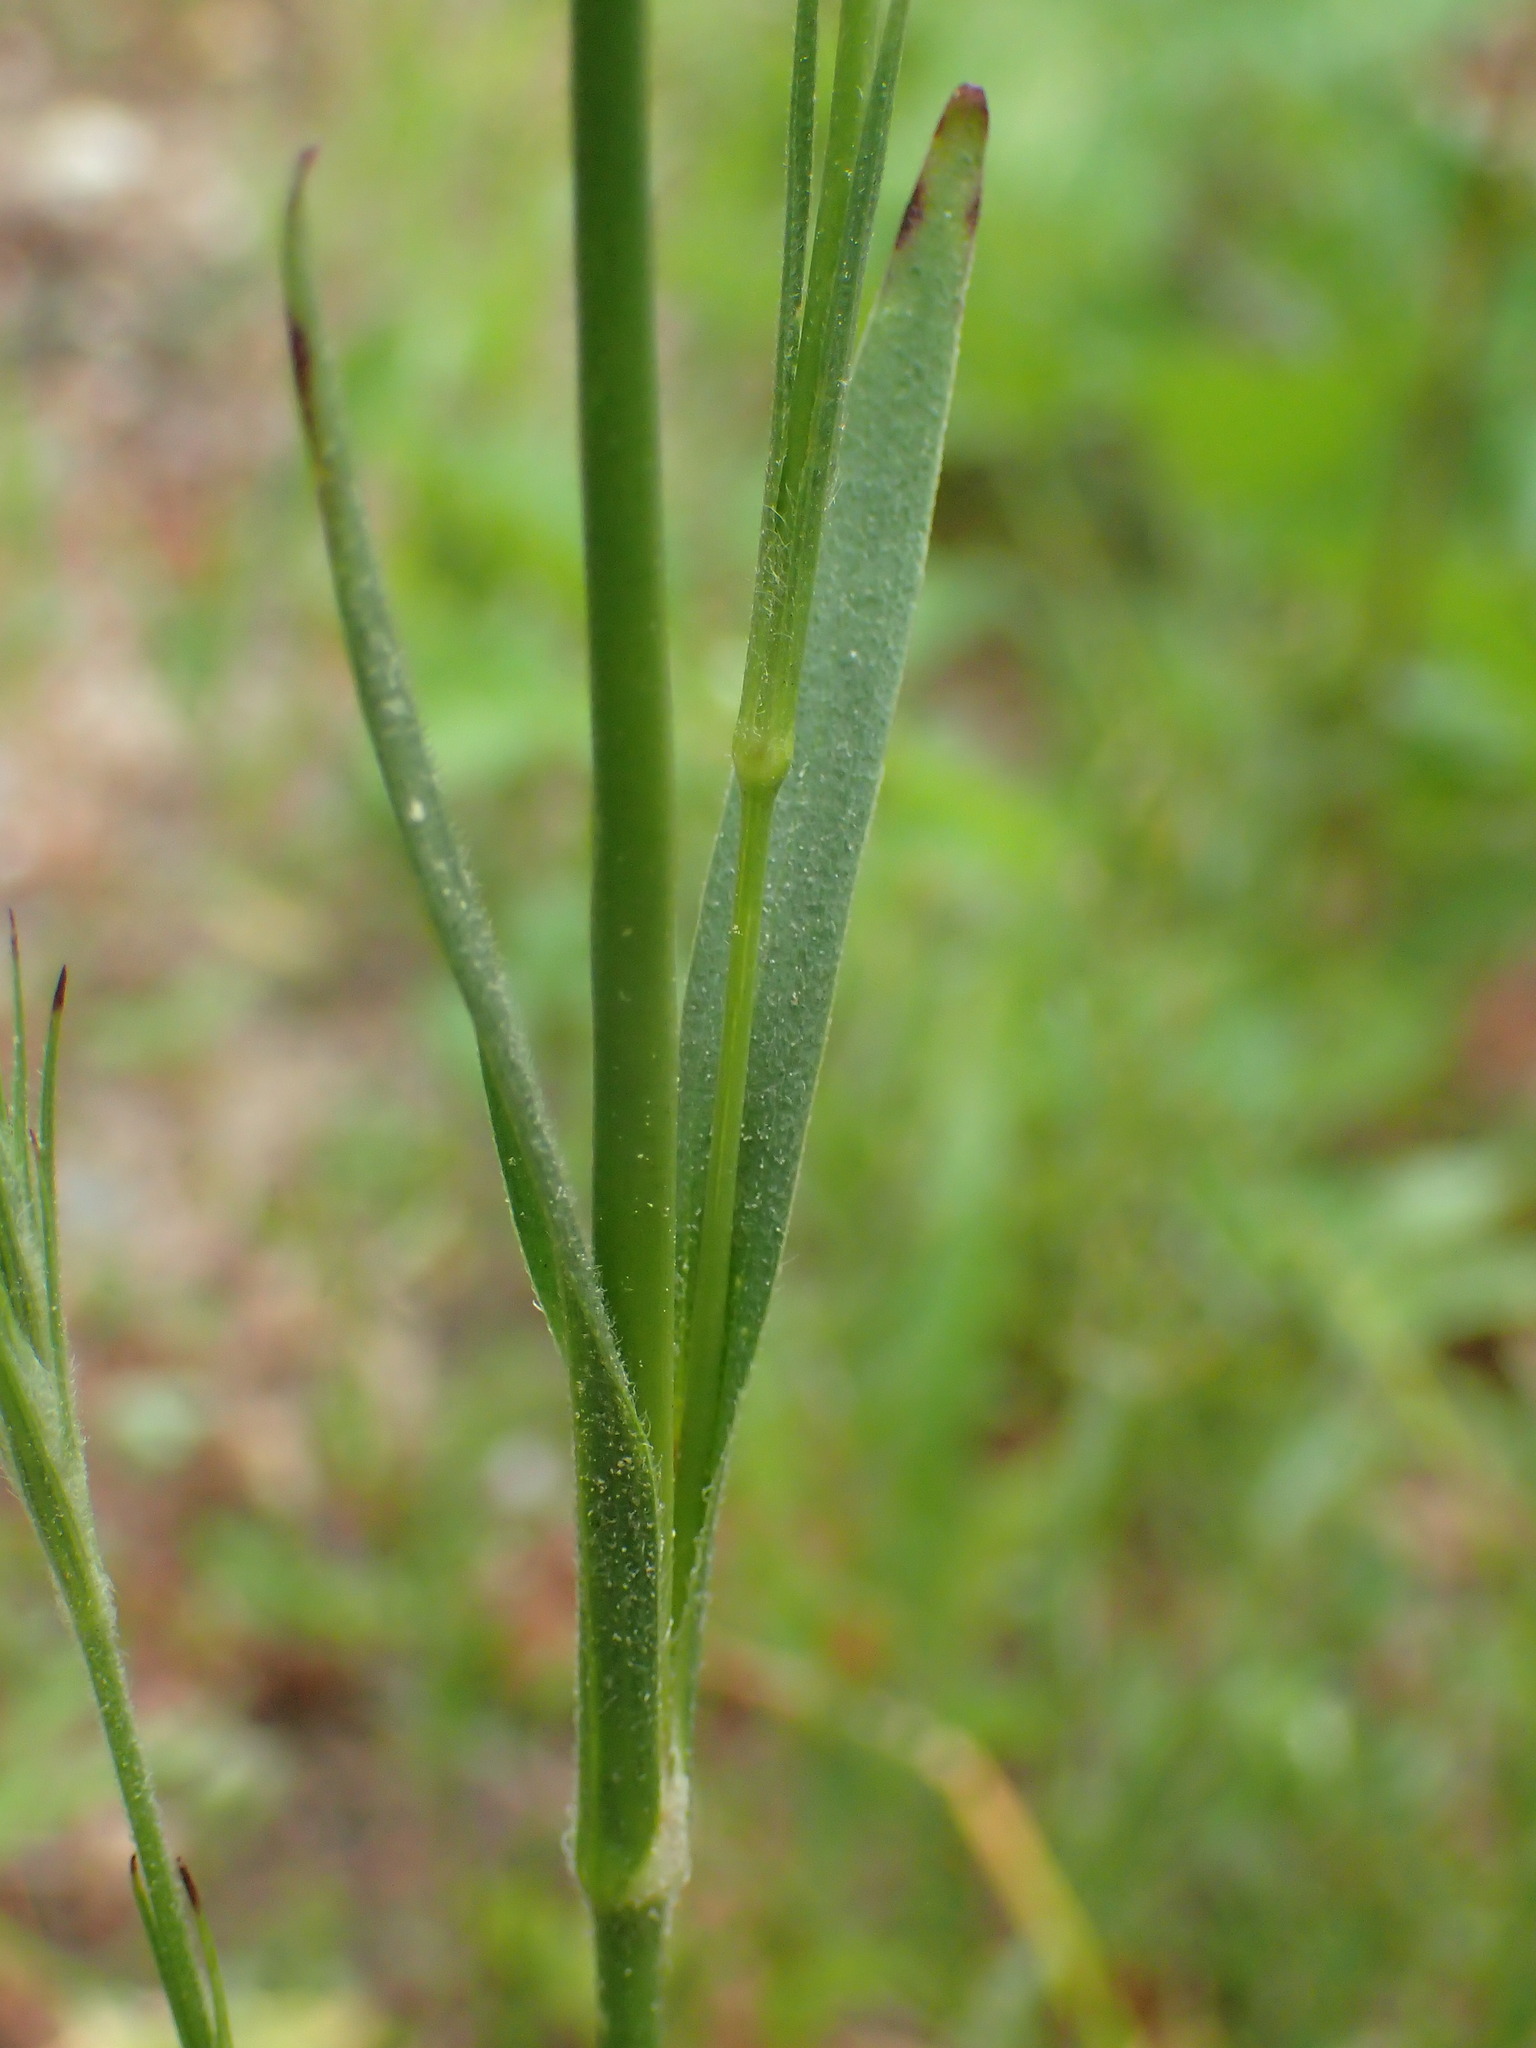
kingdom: Plantae
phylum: Tracheophyta
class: Magnoliopsida
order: Caryophyllales
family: Caryophyllaceae
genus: Dianthus
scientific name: Dianthus armeria
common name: Deptford pink
